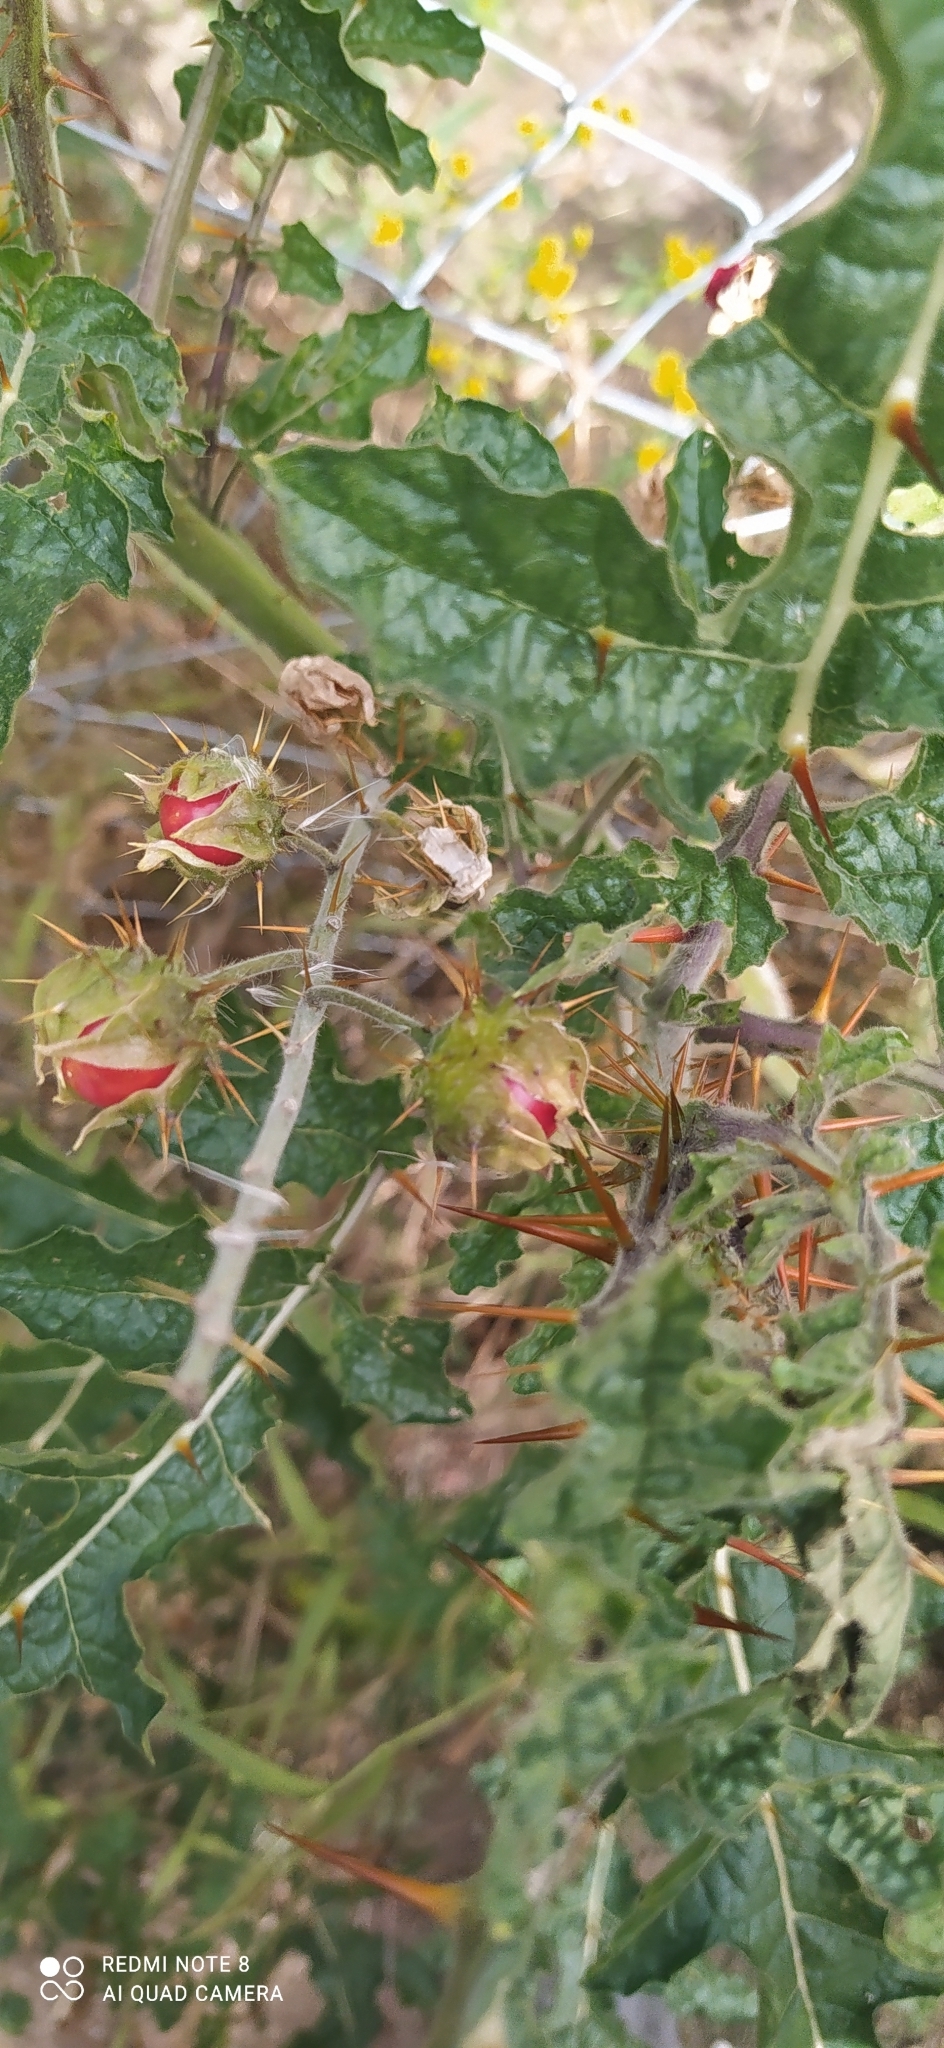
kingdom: Plantae
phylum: Tracheophyta
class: Magnoliopsida
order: Solanales
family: Solanaceae
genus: Solanum
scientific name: Solanum sisymbriifolium
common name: Red buffalo-bur
